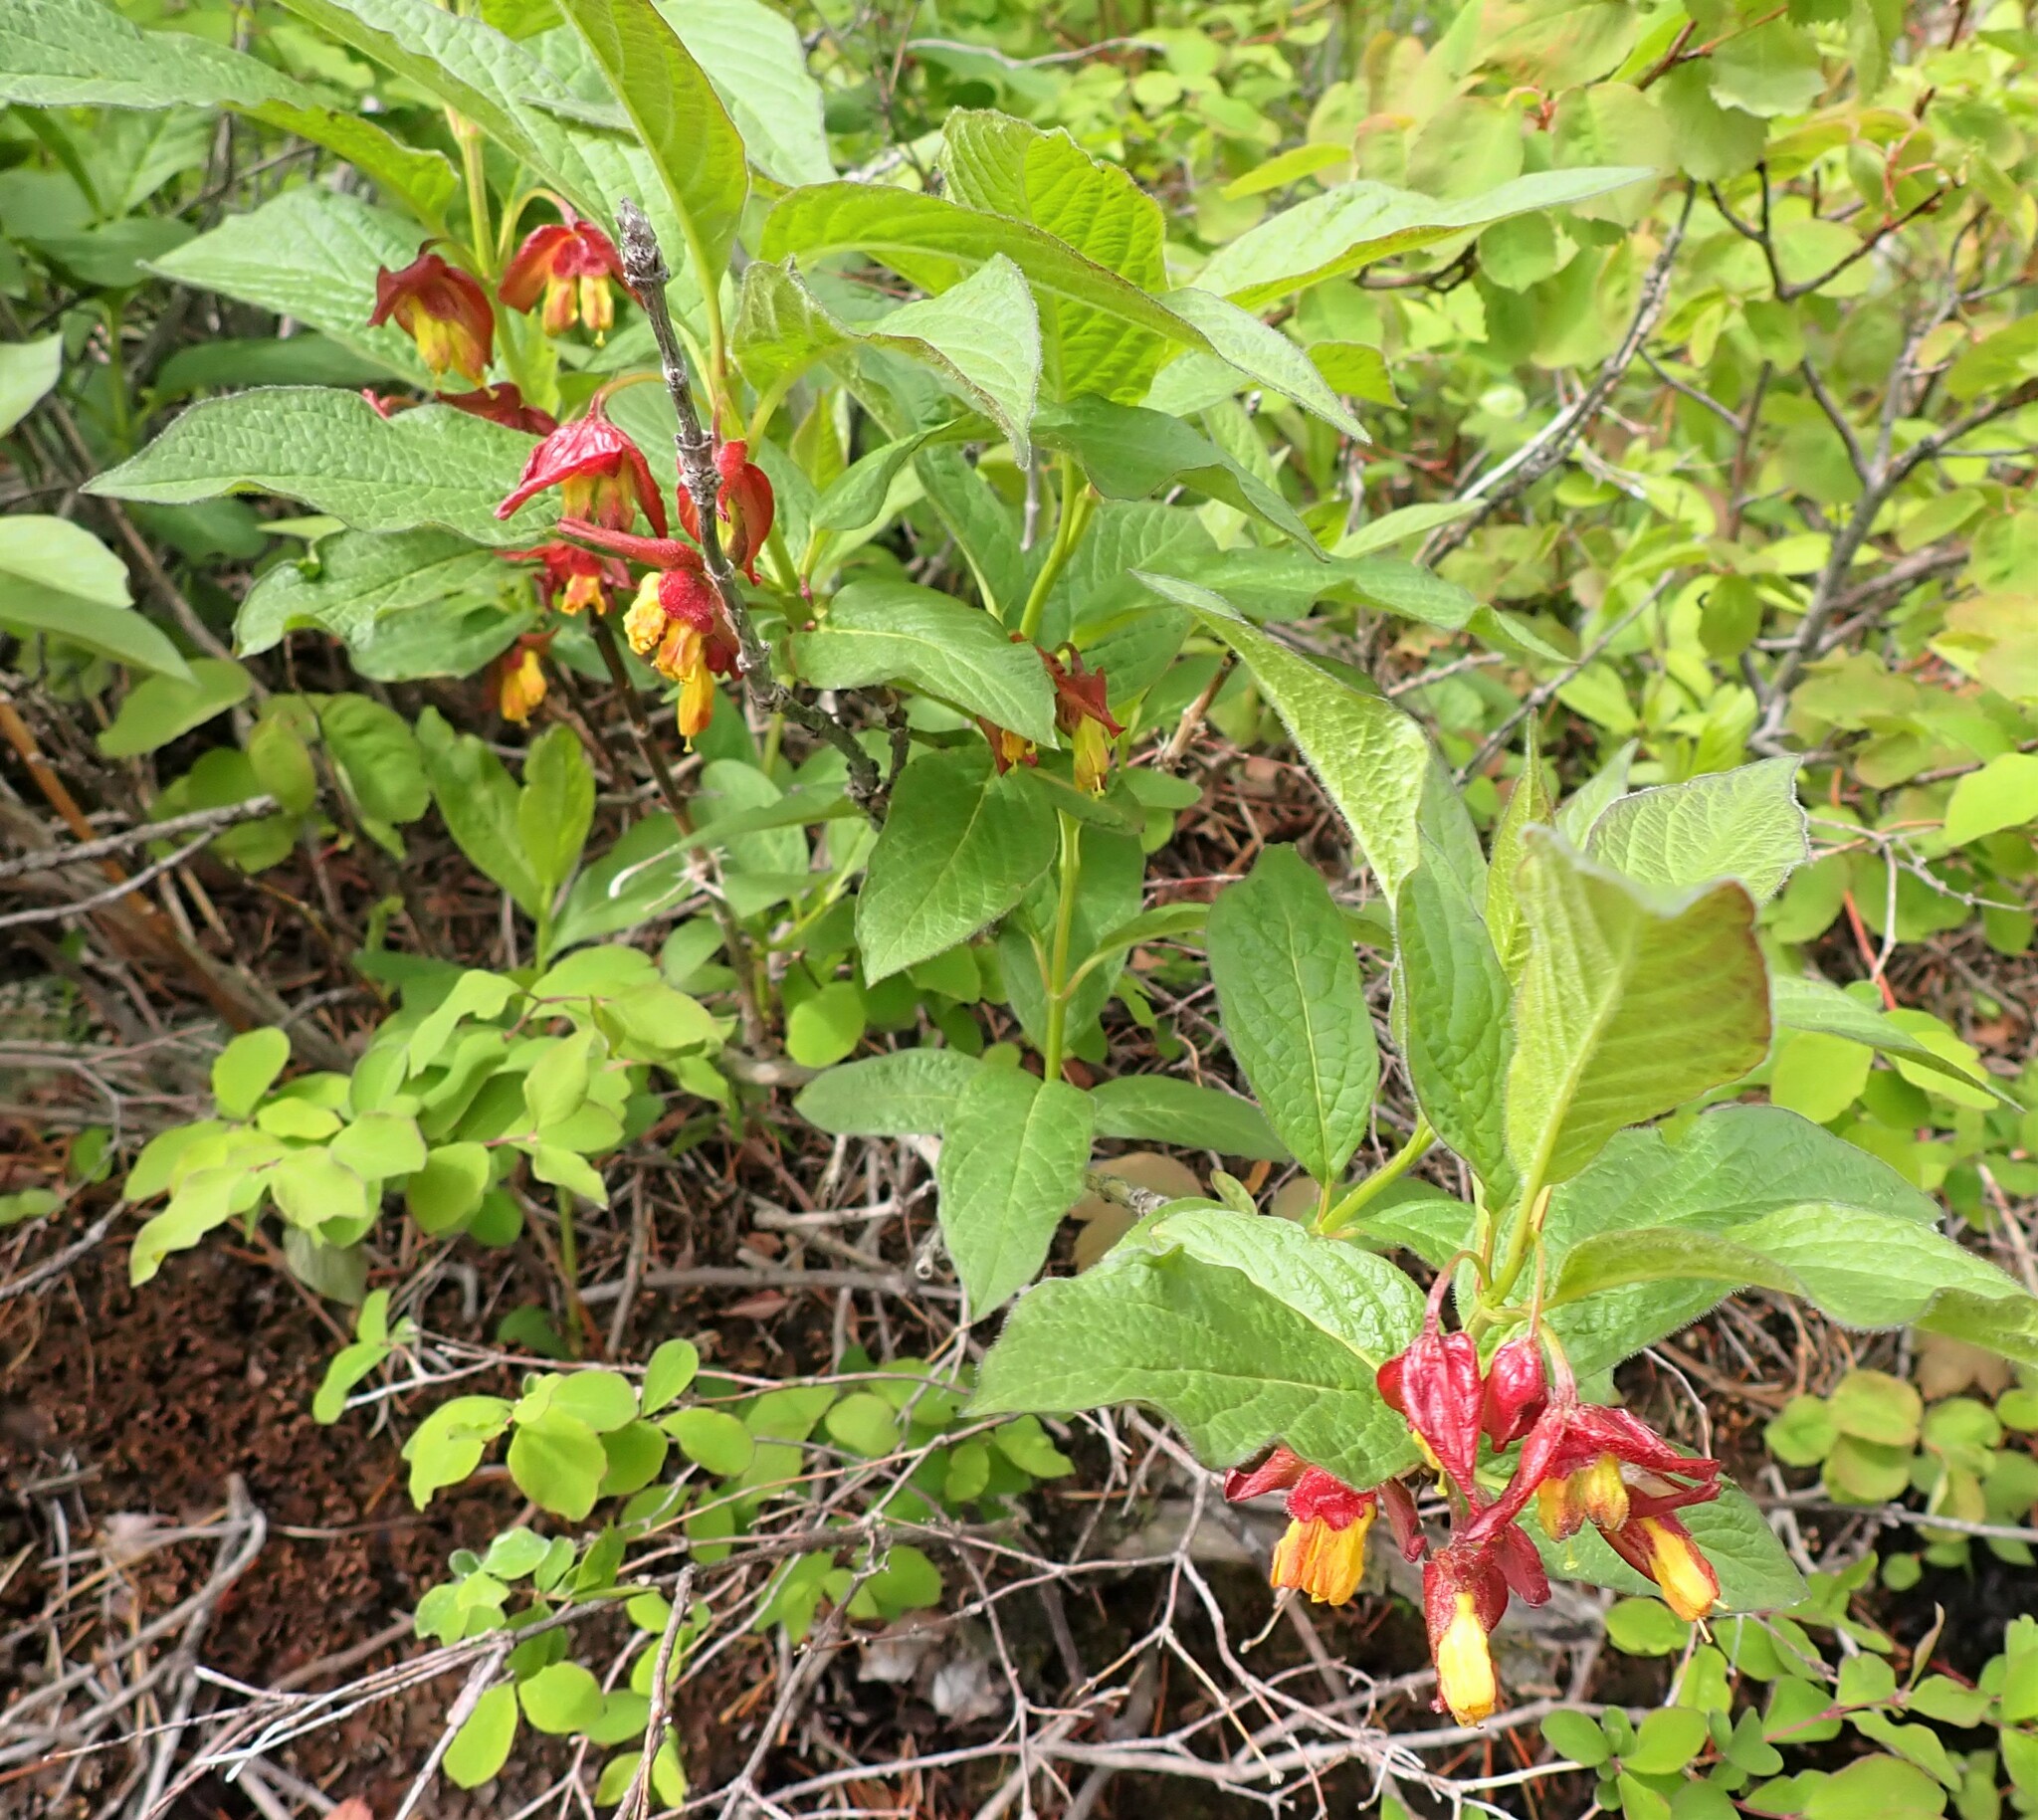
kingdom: Plantae
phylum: Tracheophyta
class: Magnoliopsida
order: Dipsacales
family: Caprifoliaceae
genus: Lonicera
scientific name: Lonicera involucrata
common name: Californian honeysuckle
